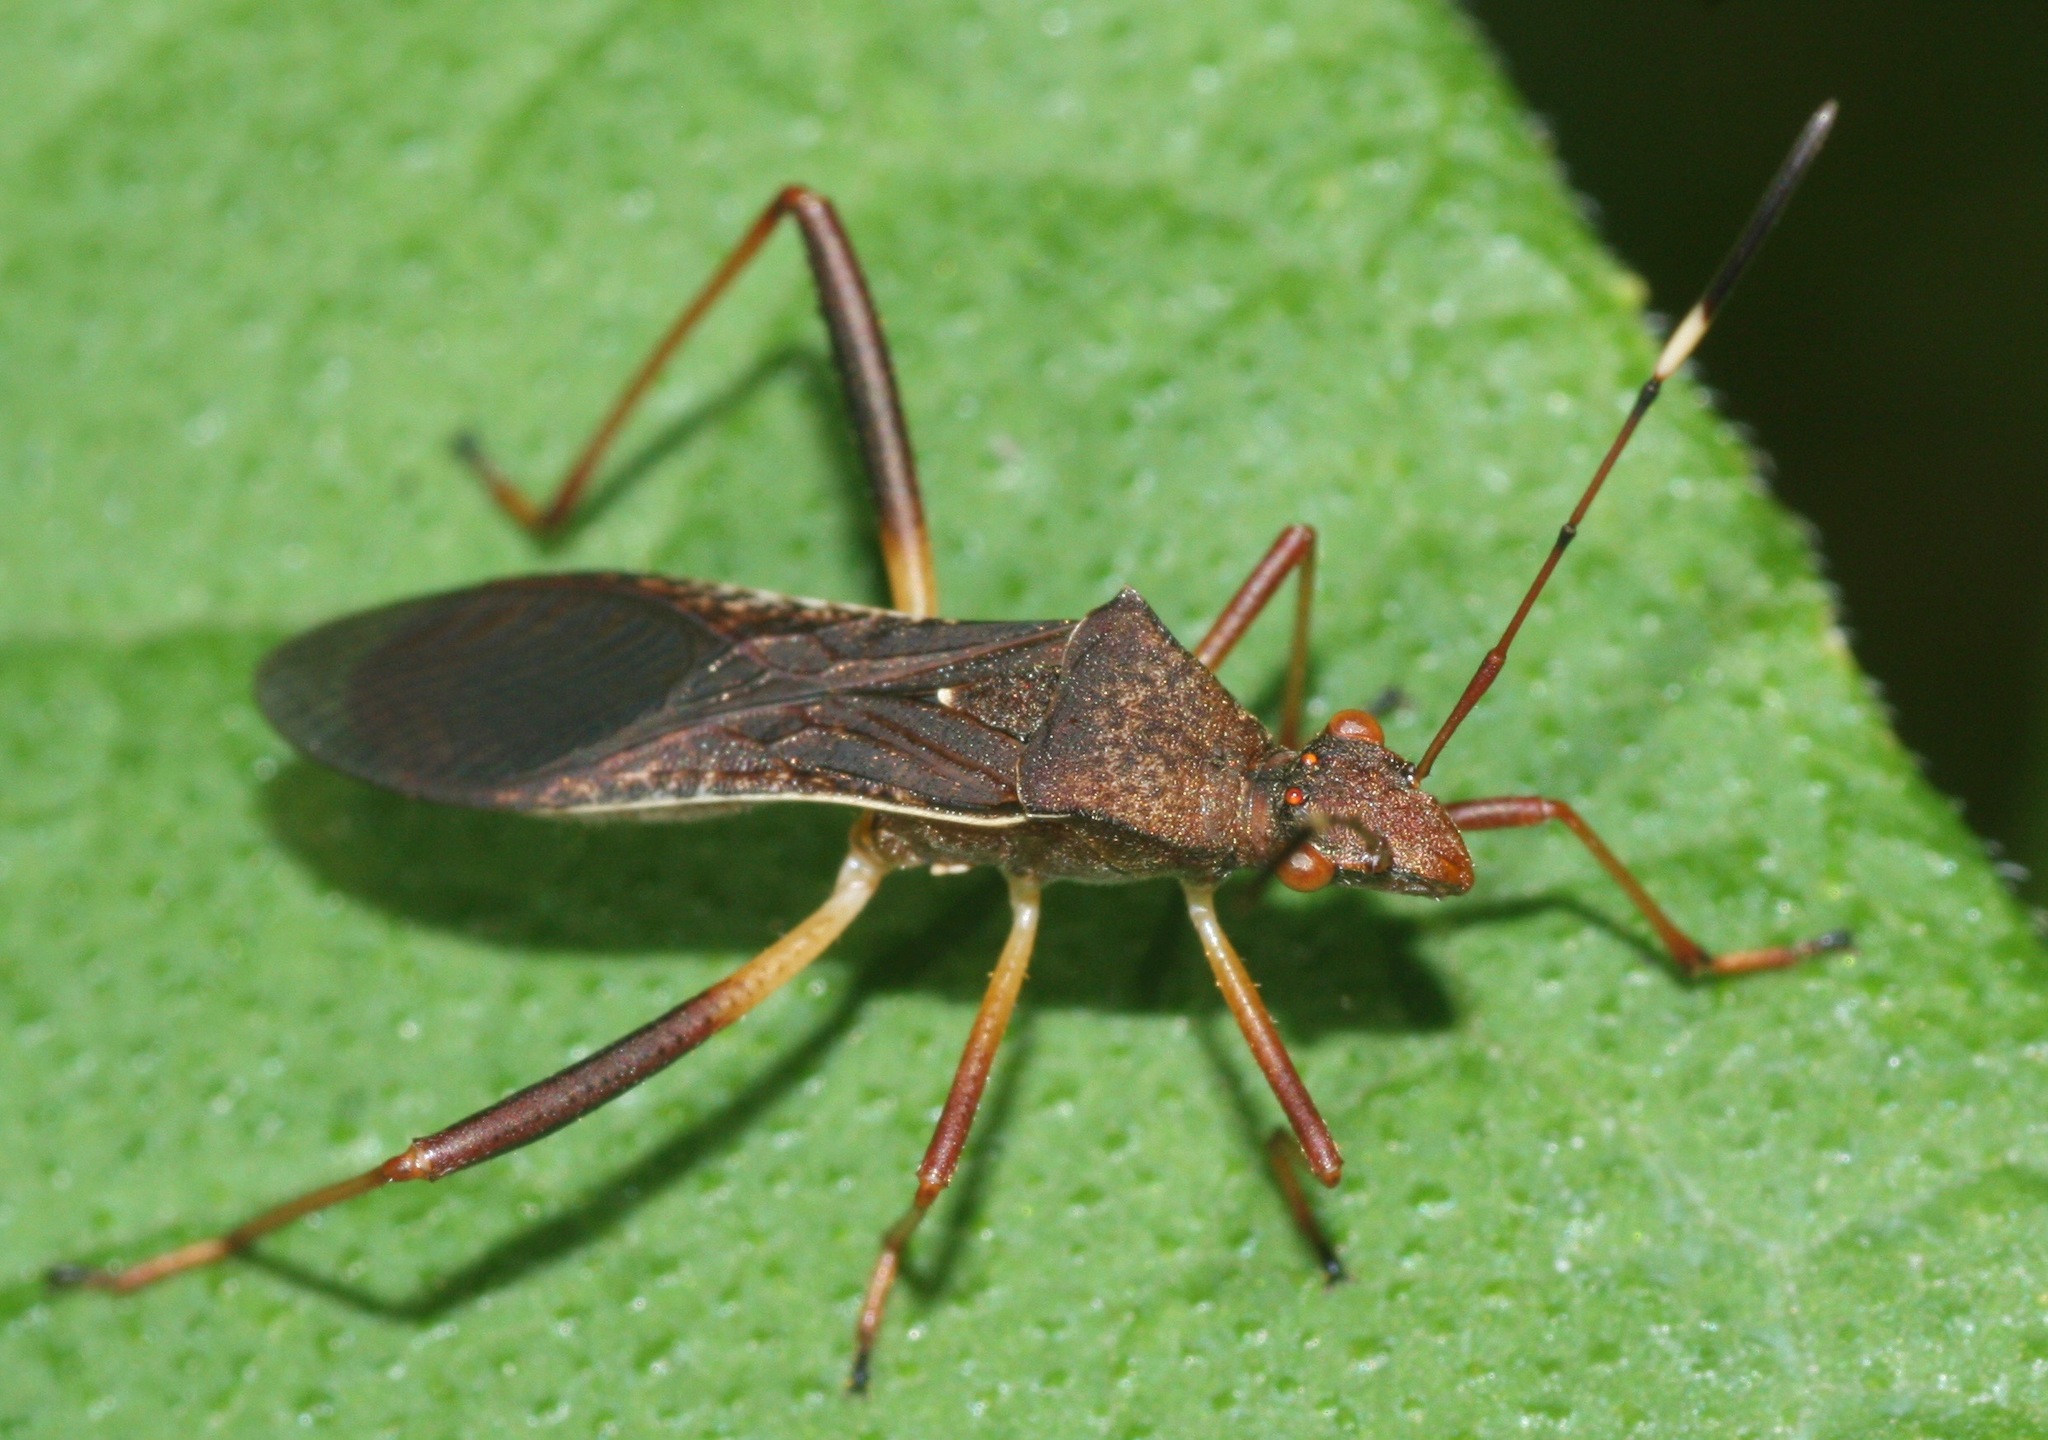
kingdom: Animalia
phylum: Arthropoda
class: Insecta
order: Hemiptera
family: Alydidae
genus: Megalotomus
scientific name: Megalotomus quinquespinosus
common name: Lupine bug
